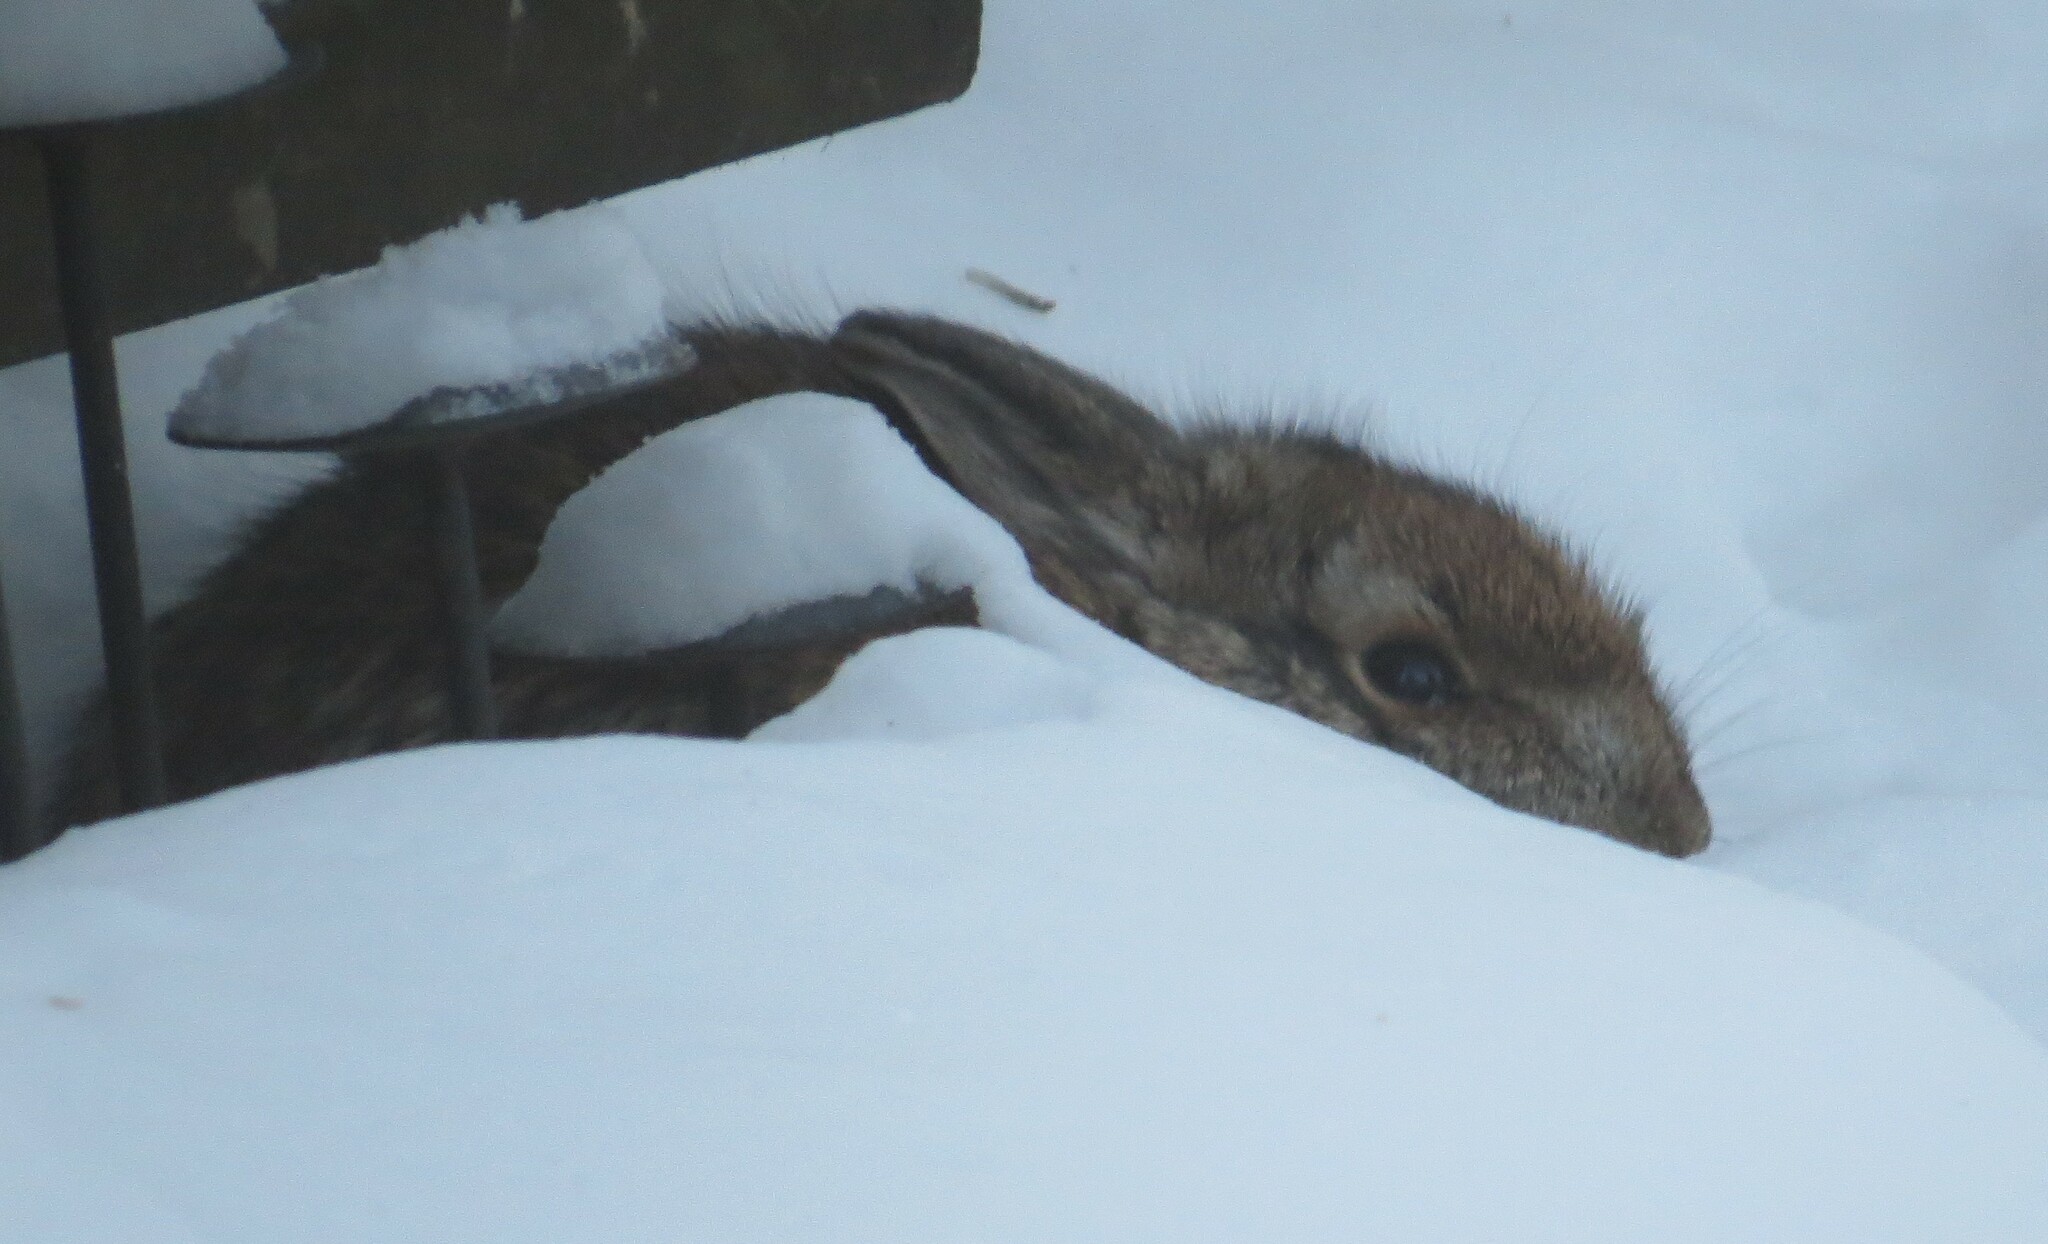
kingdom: Animalia
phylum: Chordata
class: Mammalia
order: Lagomorpha
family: Leporidae
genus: Sylvilagus
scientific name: Sylvilagus floridanus
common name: Eastern cottontail
